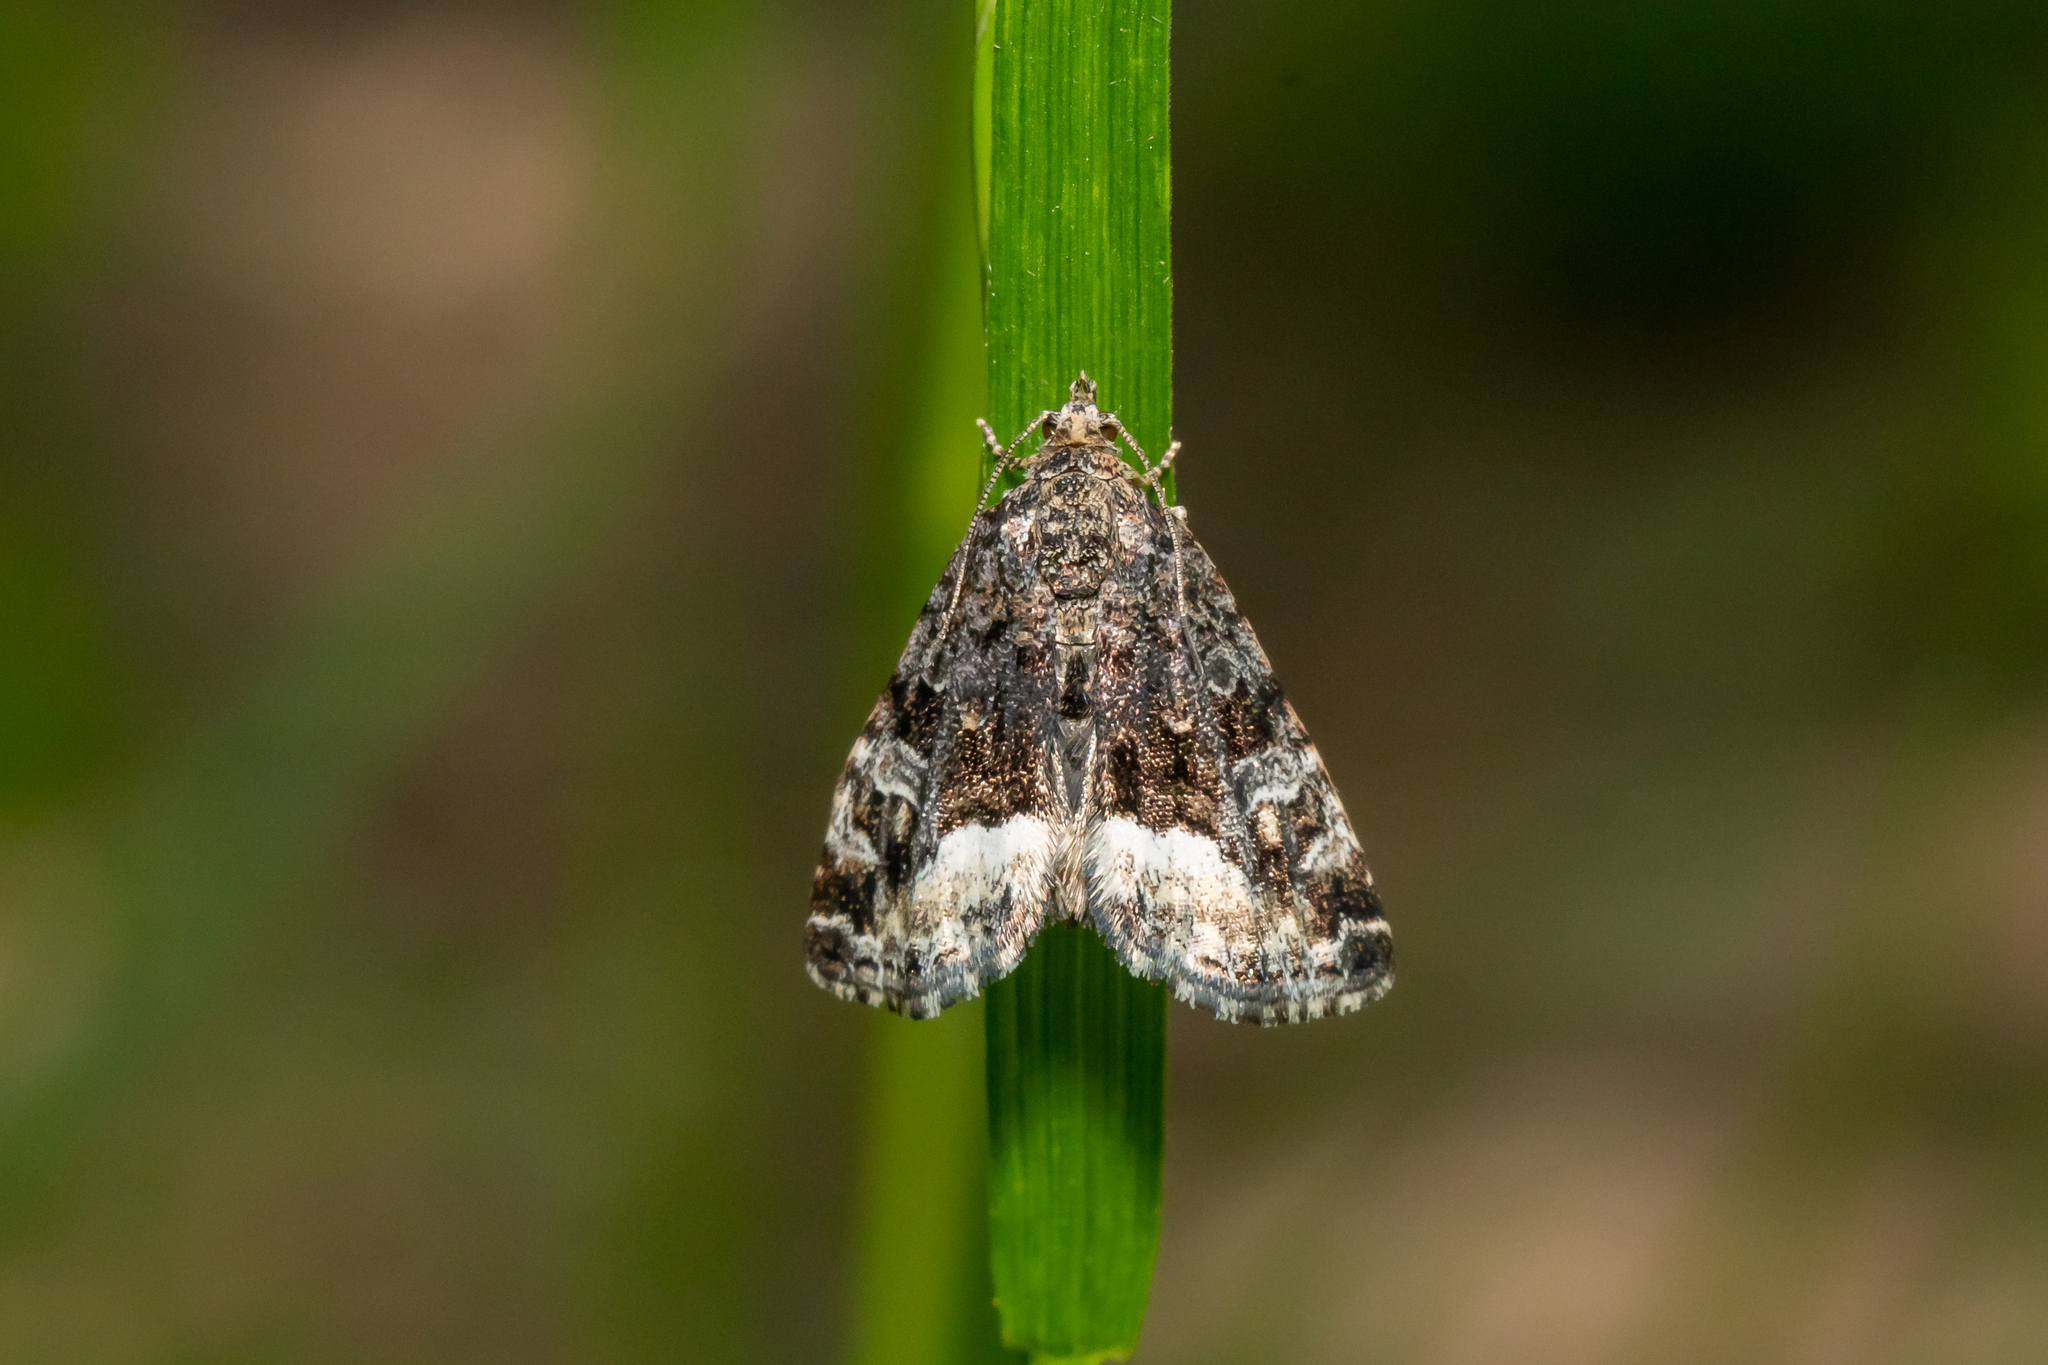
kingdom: Animalia
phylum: Arthropoda
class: Insecta
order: Lepidoptera
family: Noctuidae
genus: Deltote
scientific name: Deltote pygarga
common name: Marbled white spot
